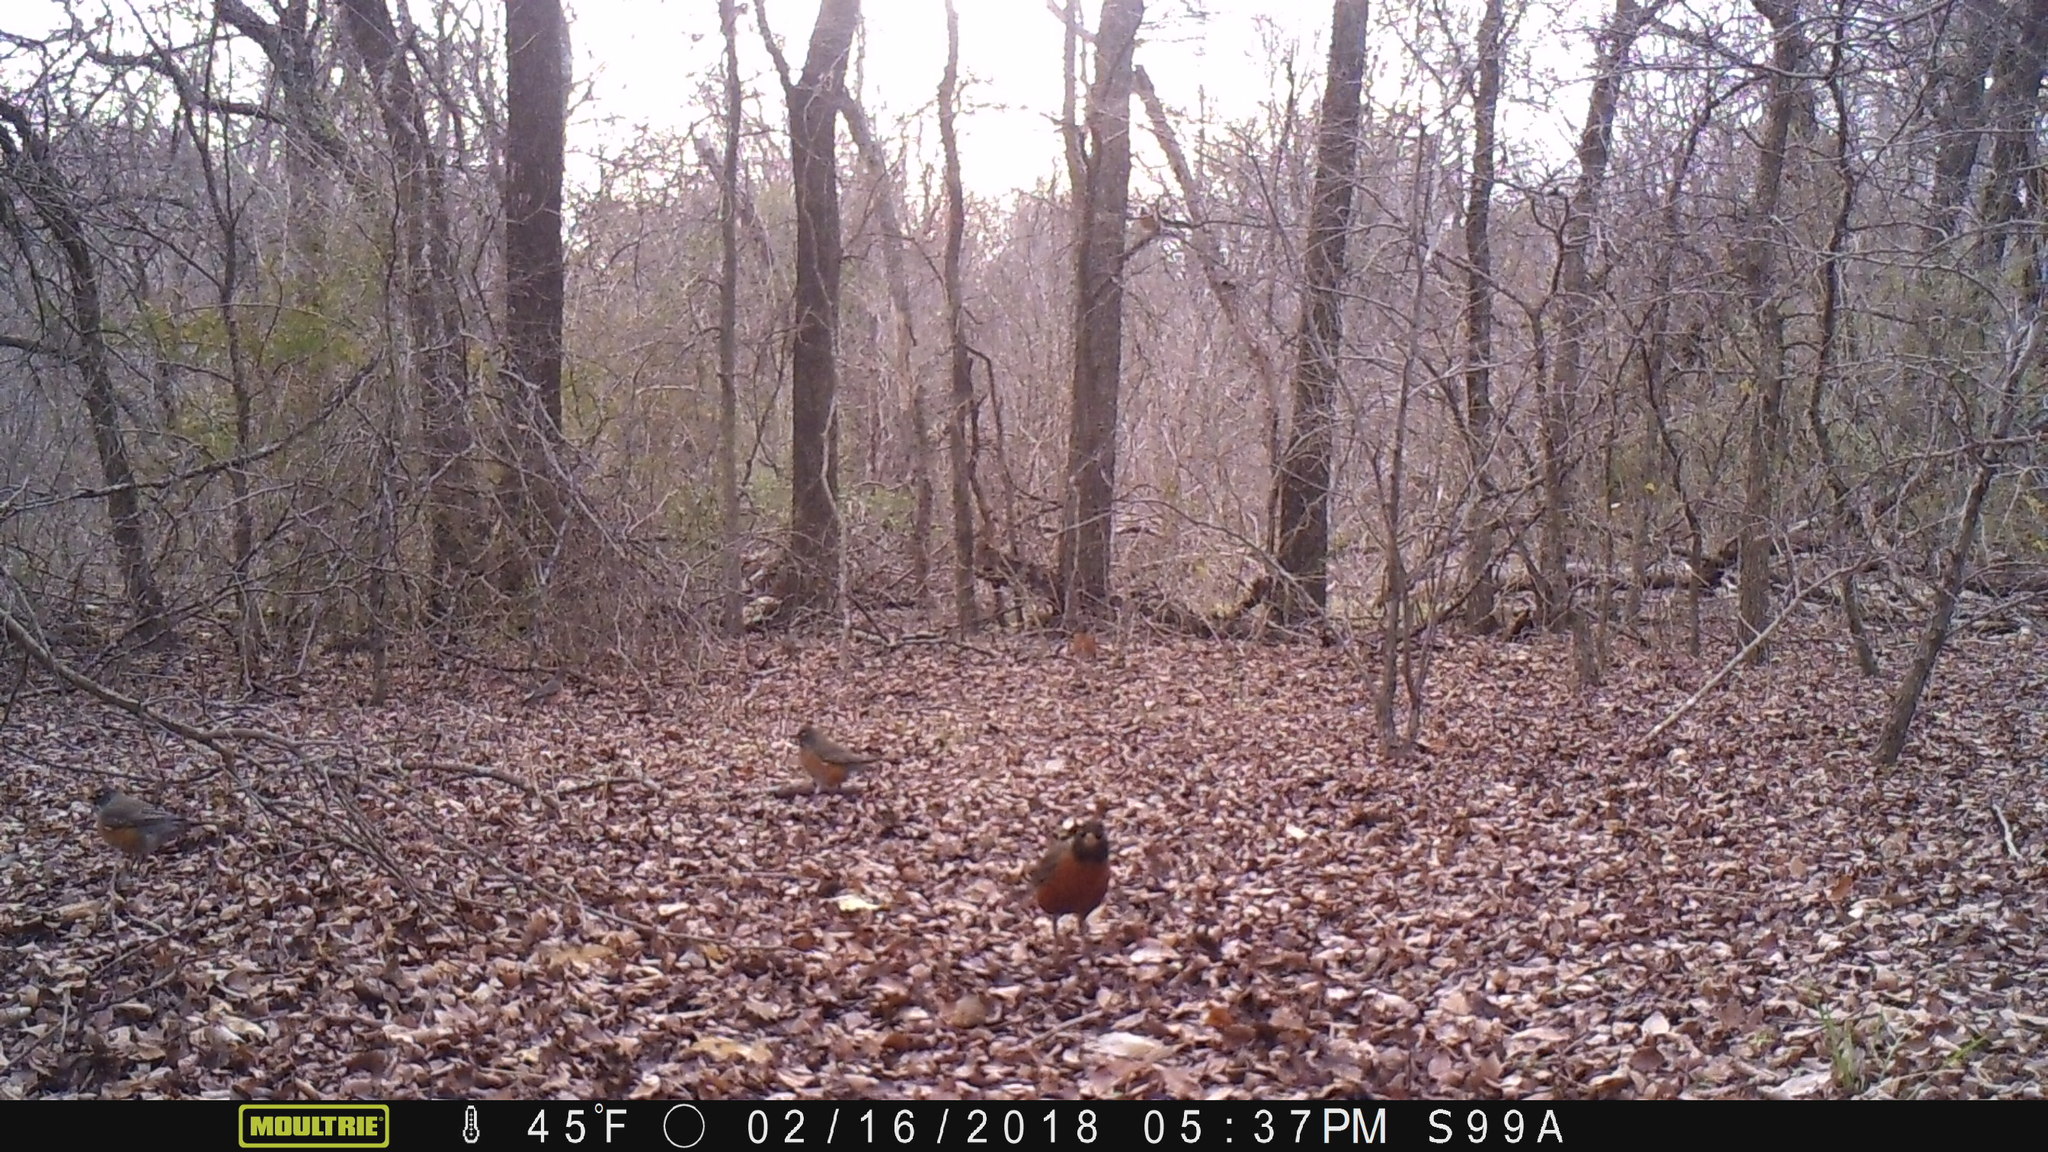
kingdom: Animalia
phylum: Chordata
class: Aves
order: Passeriformes
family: Turdidae
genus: Turdus
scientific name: Turdus migratorius
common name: American robin
